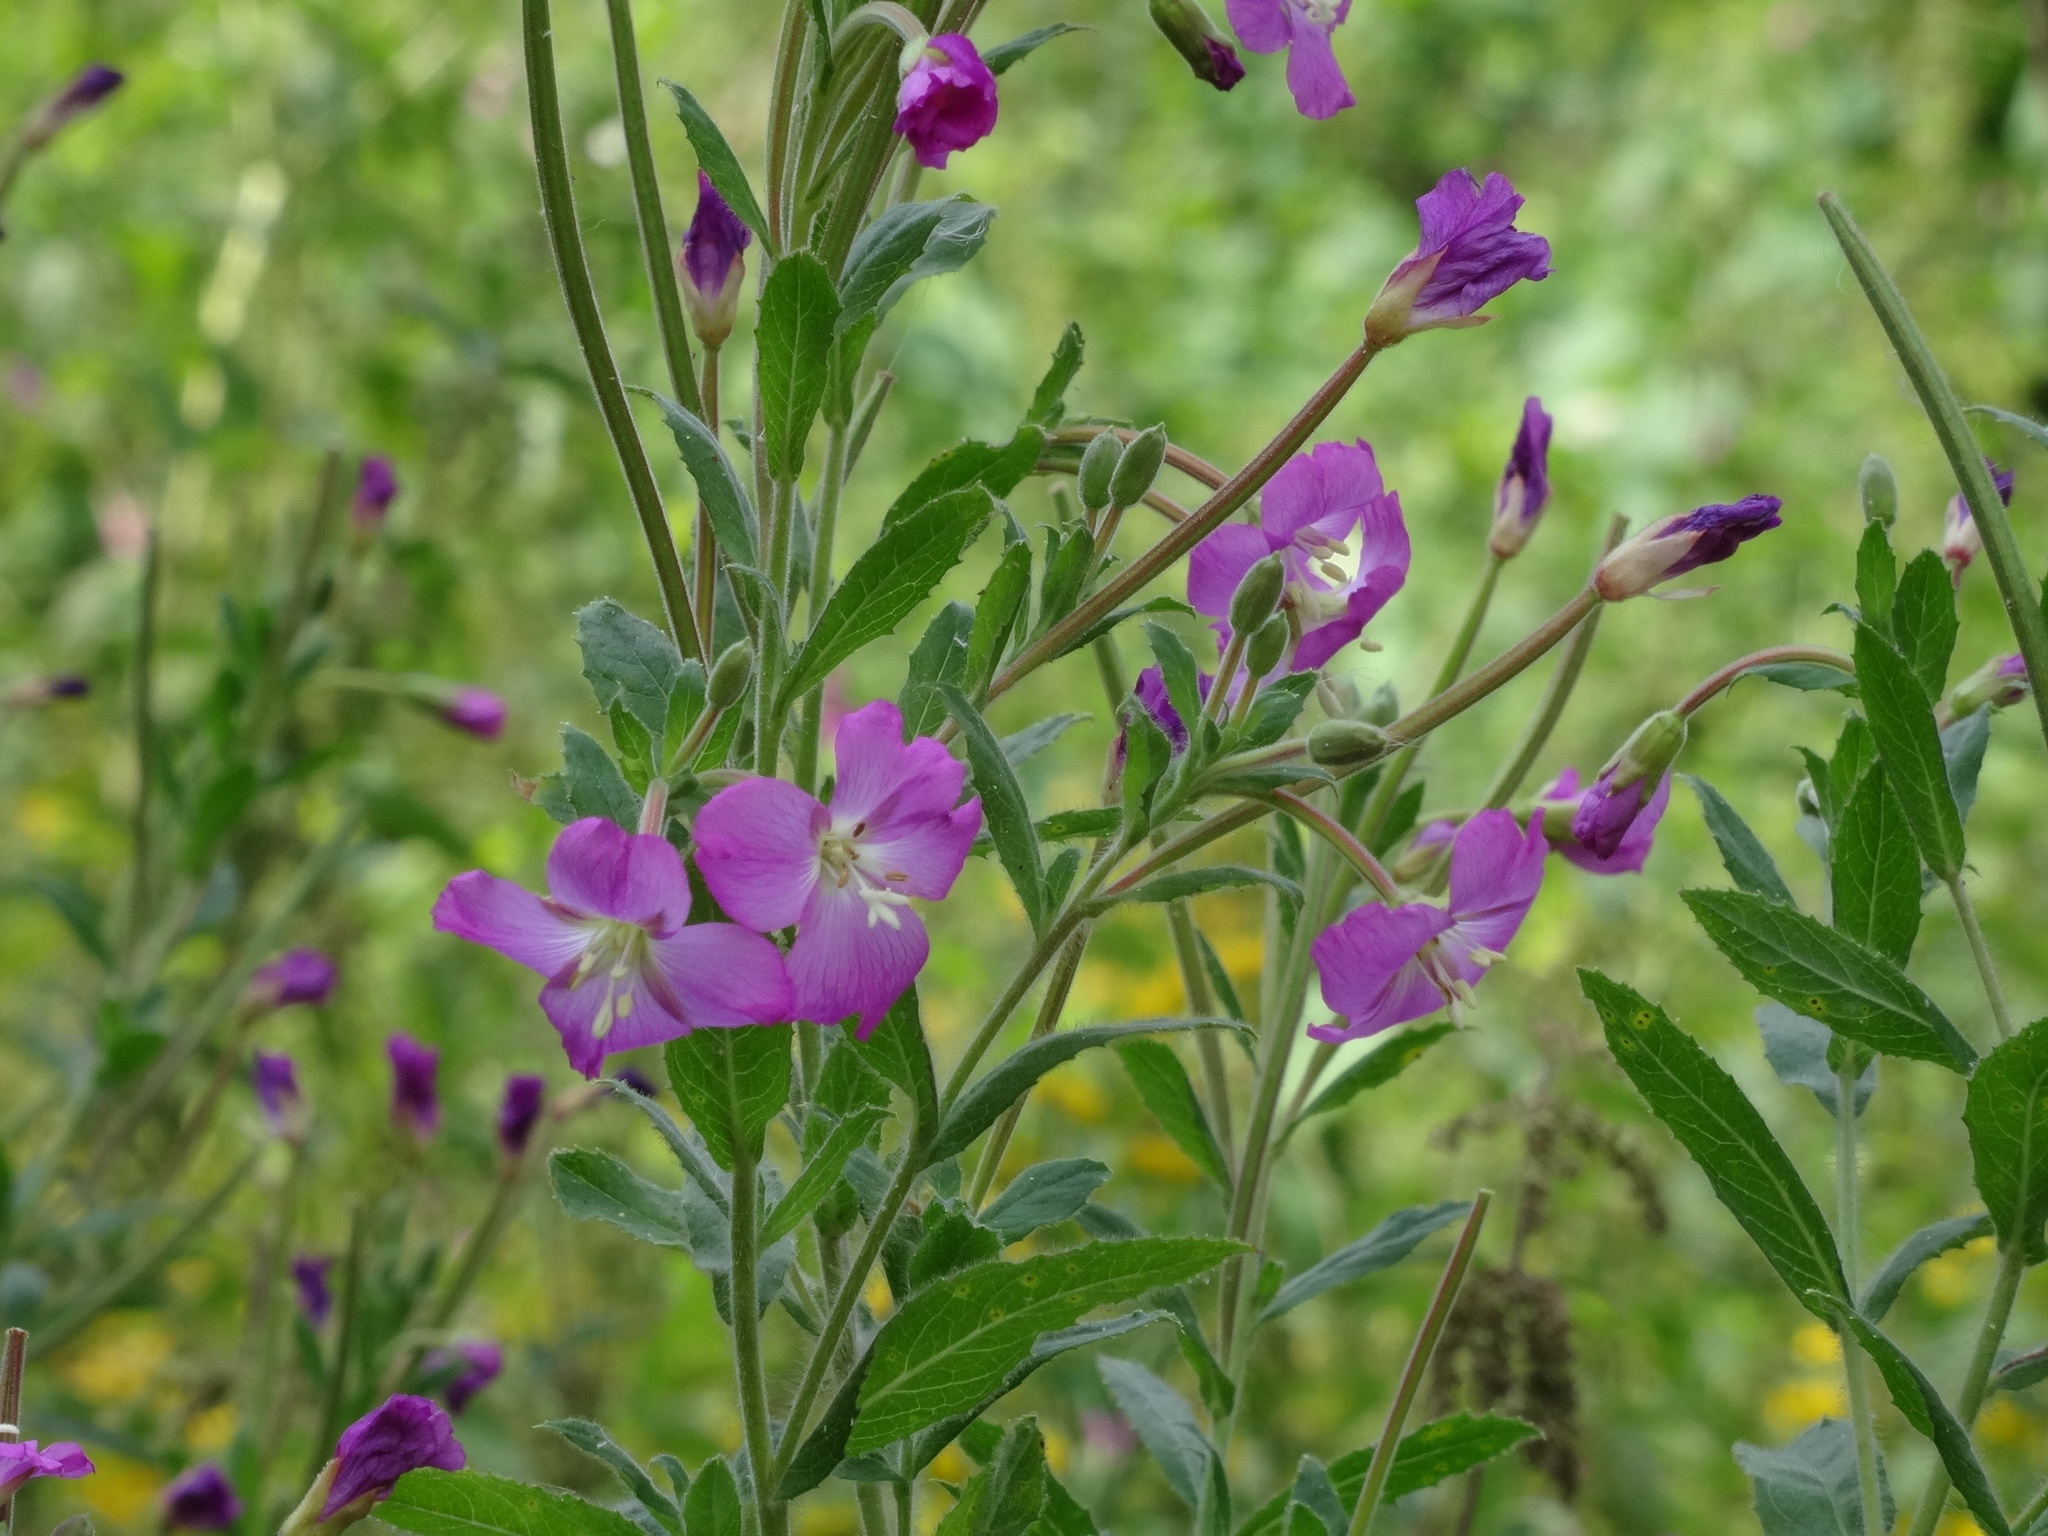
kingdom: Plantae
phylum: Tracheophyta
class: Magnoliopsida
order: Myrtales
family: Onagraceae
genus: Epilobium
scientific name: Epilobium hirsutum
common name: Great willowherb
